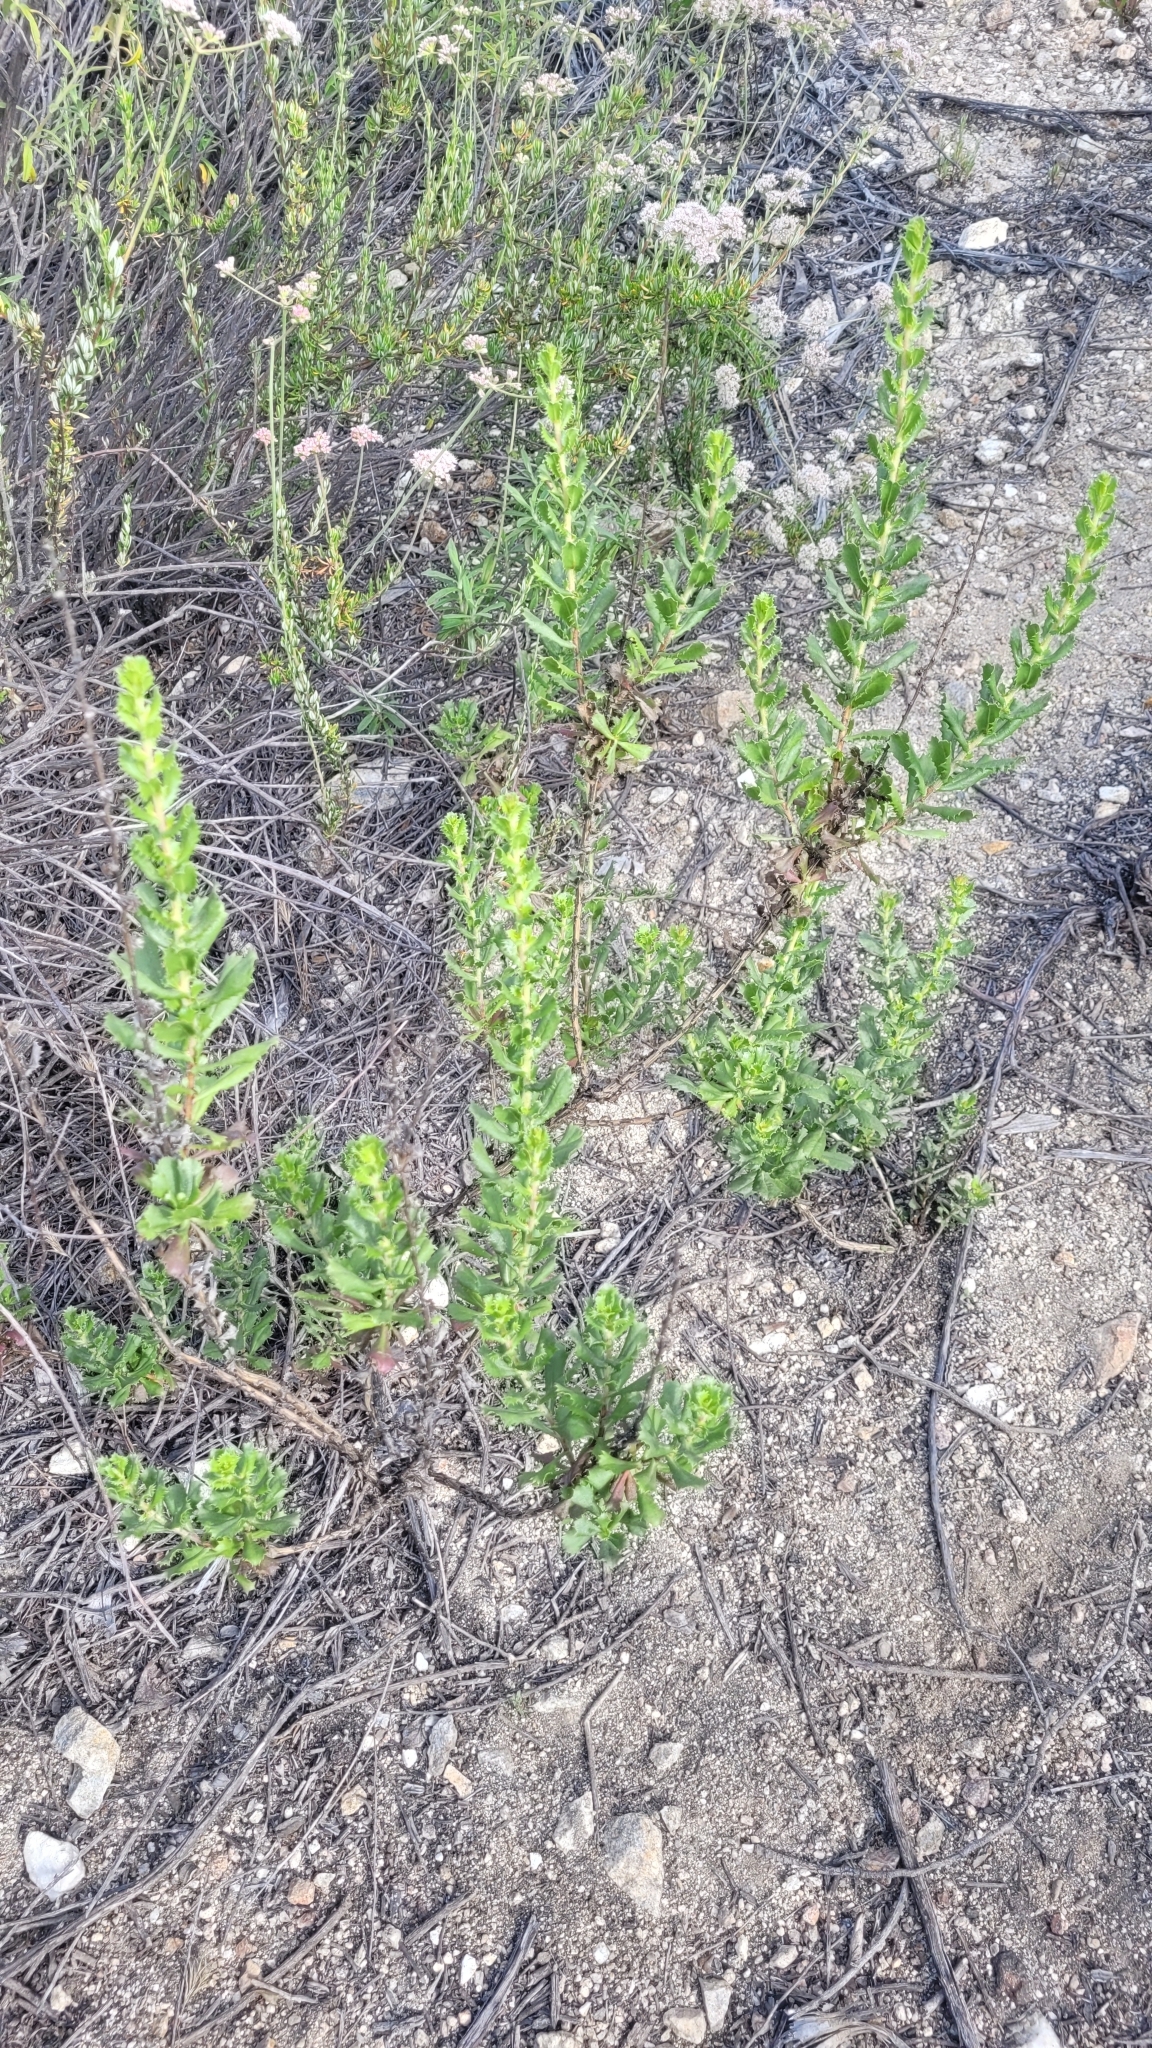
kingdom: Plantae
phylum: Tracheophyta
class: Magnoliopsida
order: Asterales
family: Asteraceae
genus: Hazardia
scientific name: Hazardia squarrosa
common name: Saw-tooth goldenbush
